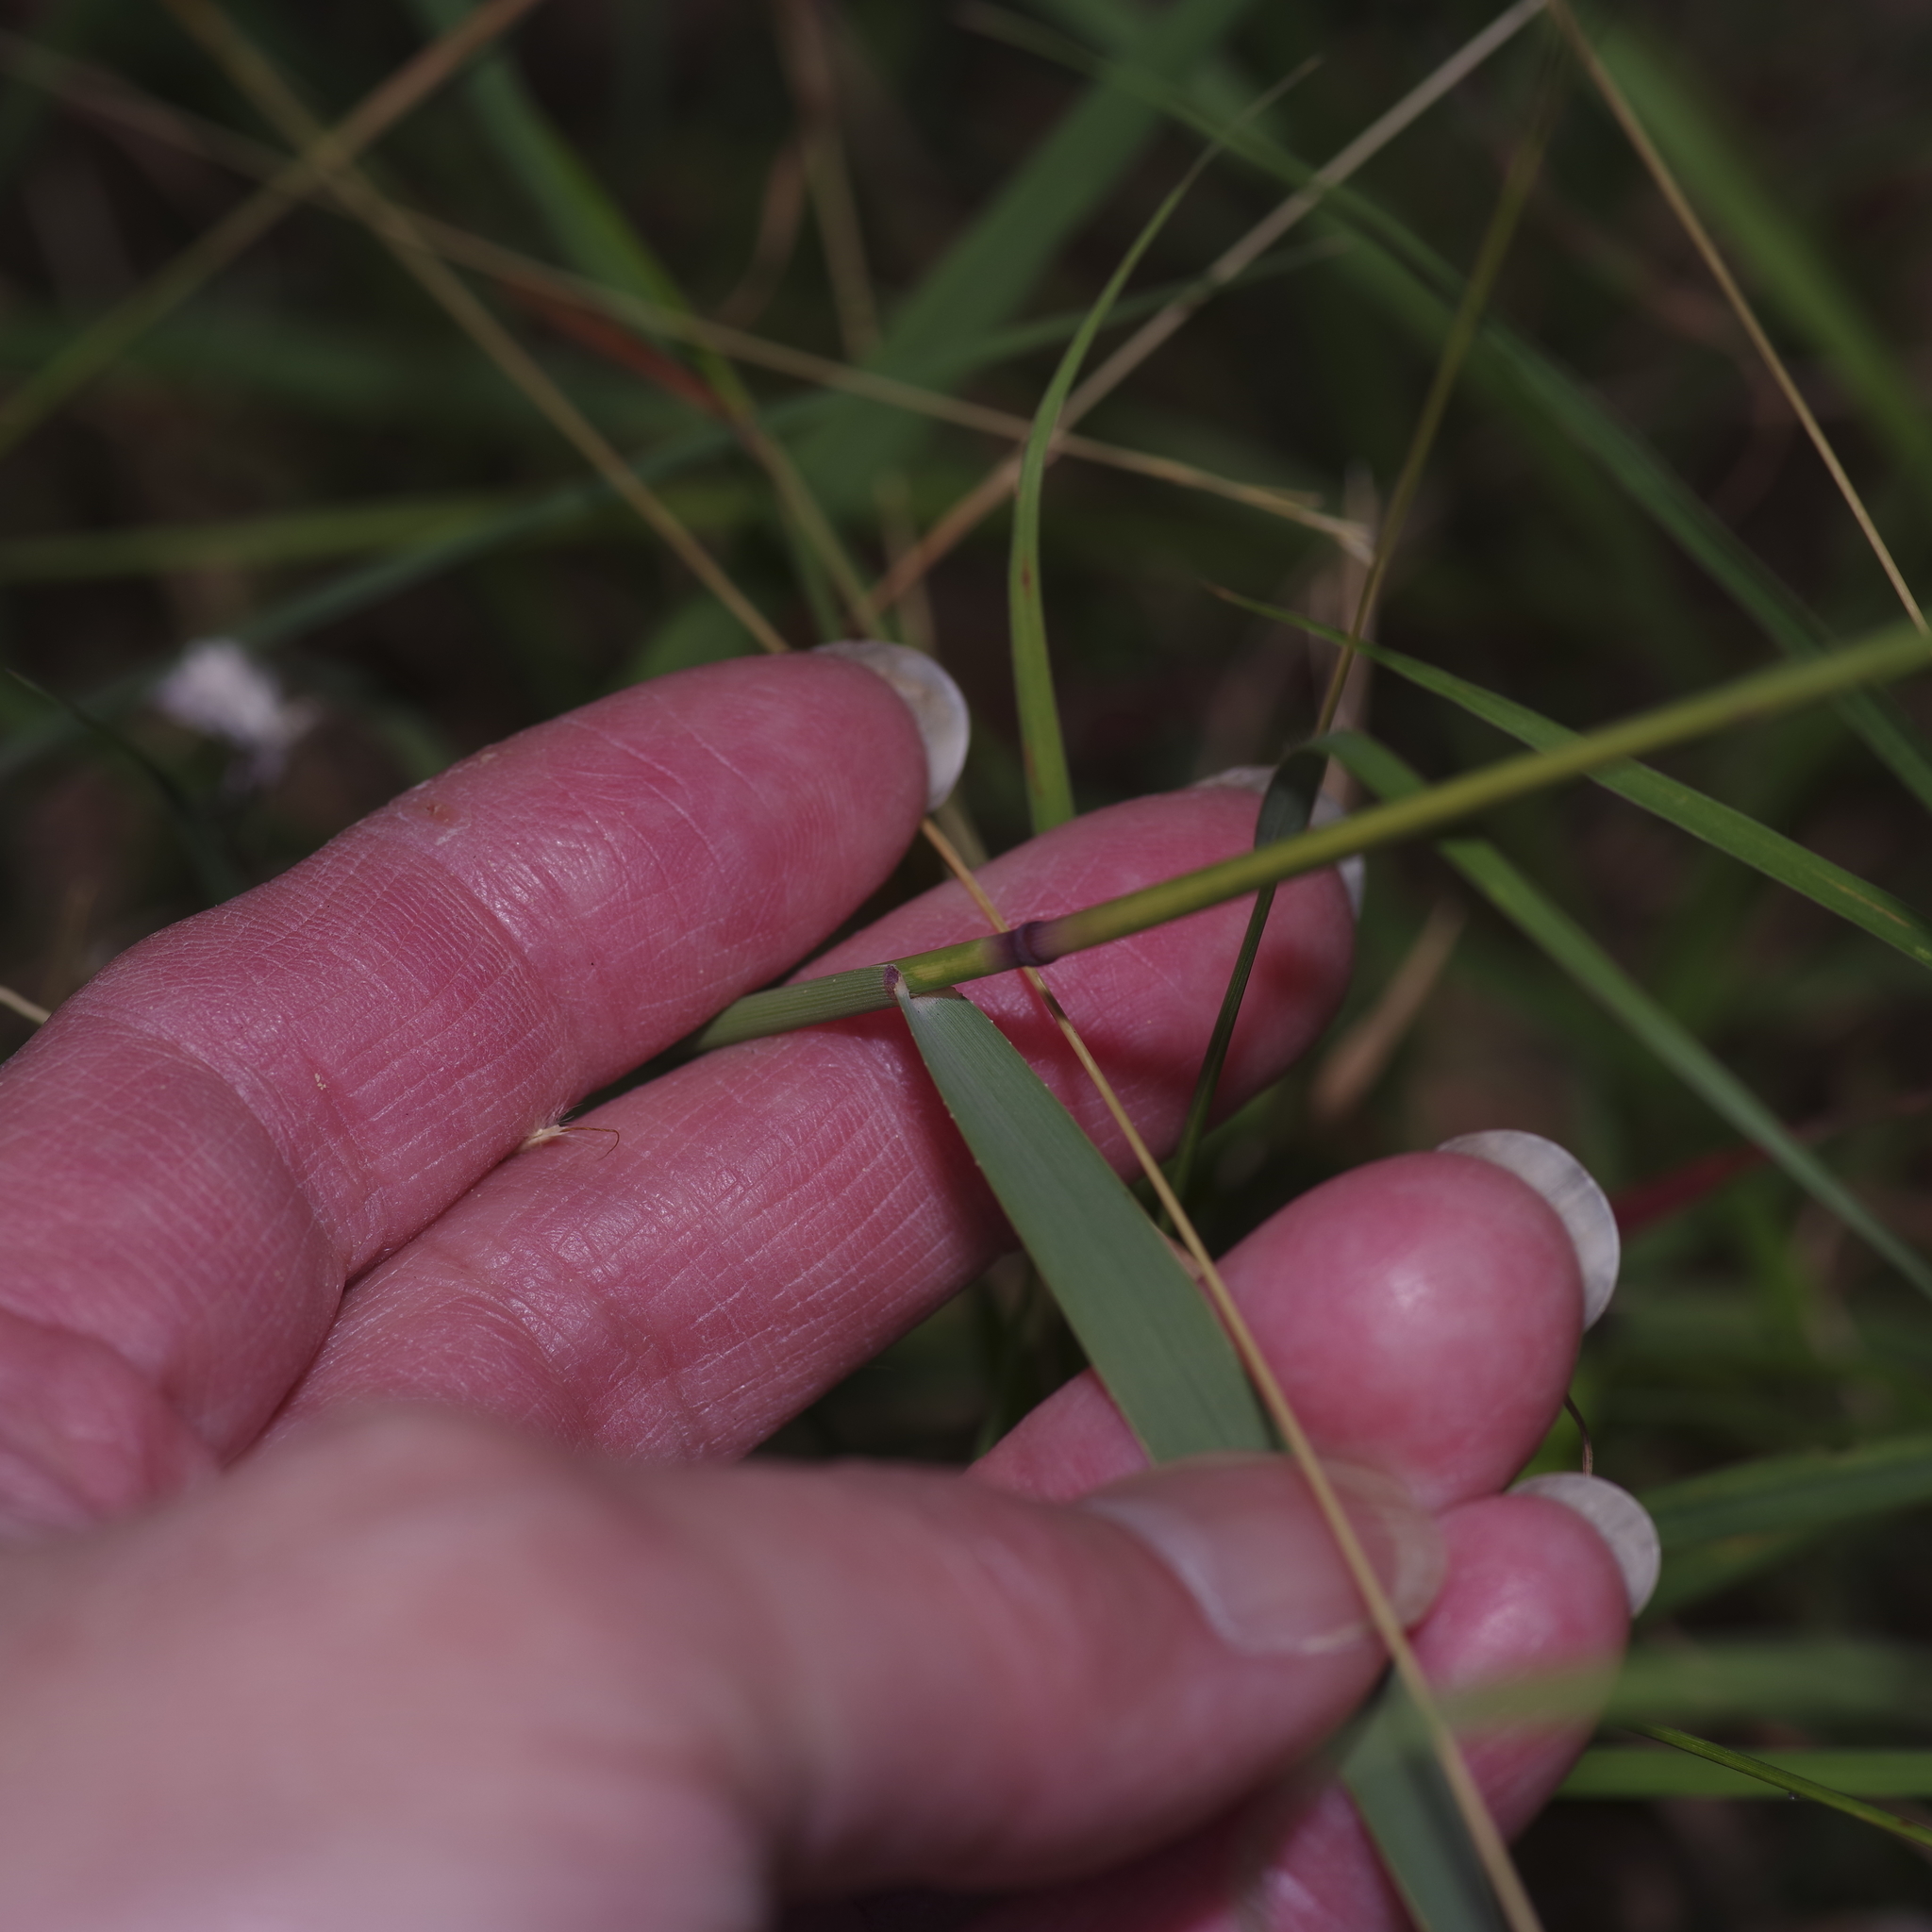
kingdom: Plantae
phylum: Tracheophyta
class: Liliopsida
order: Poales
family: Poaceae
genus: Bouteloua
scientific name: Bouteloua curtipendula
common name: Side-oats grama
